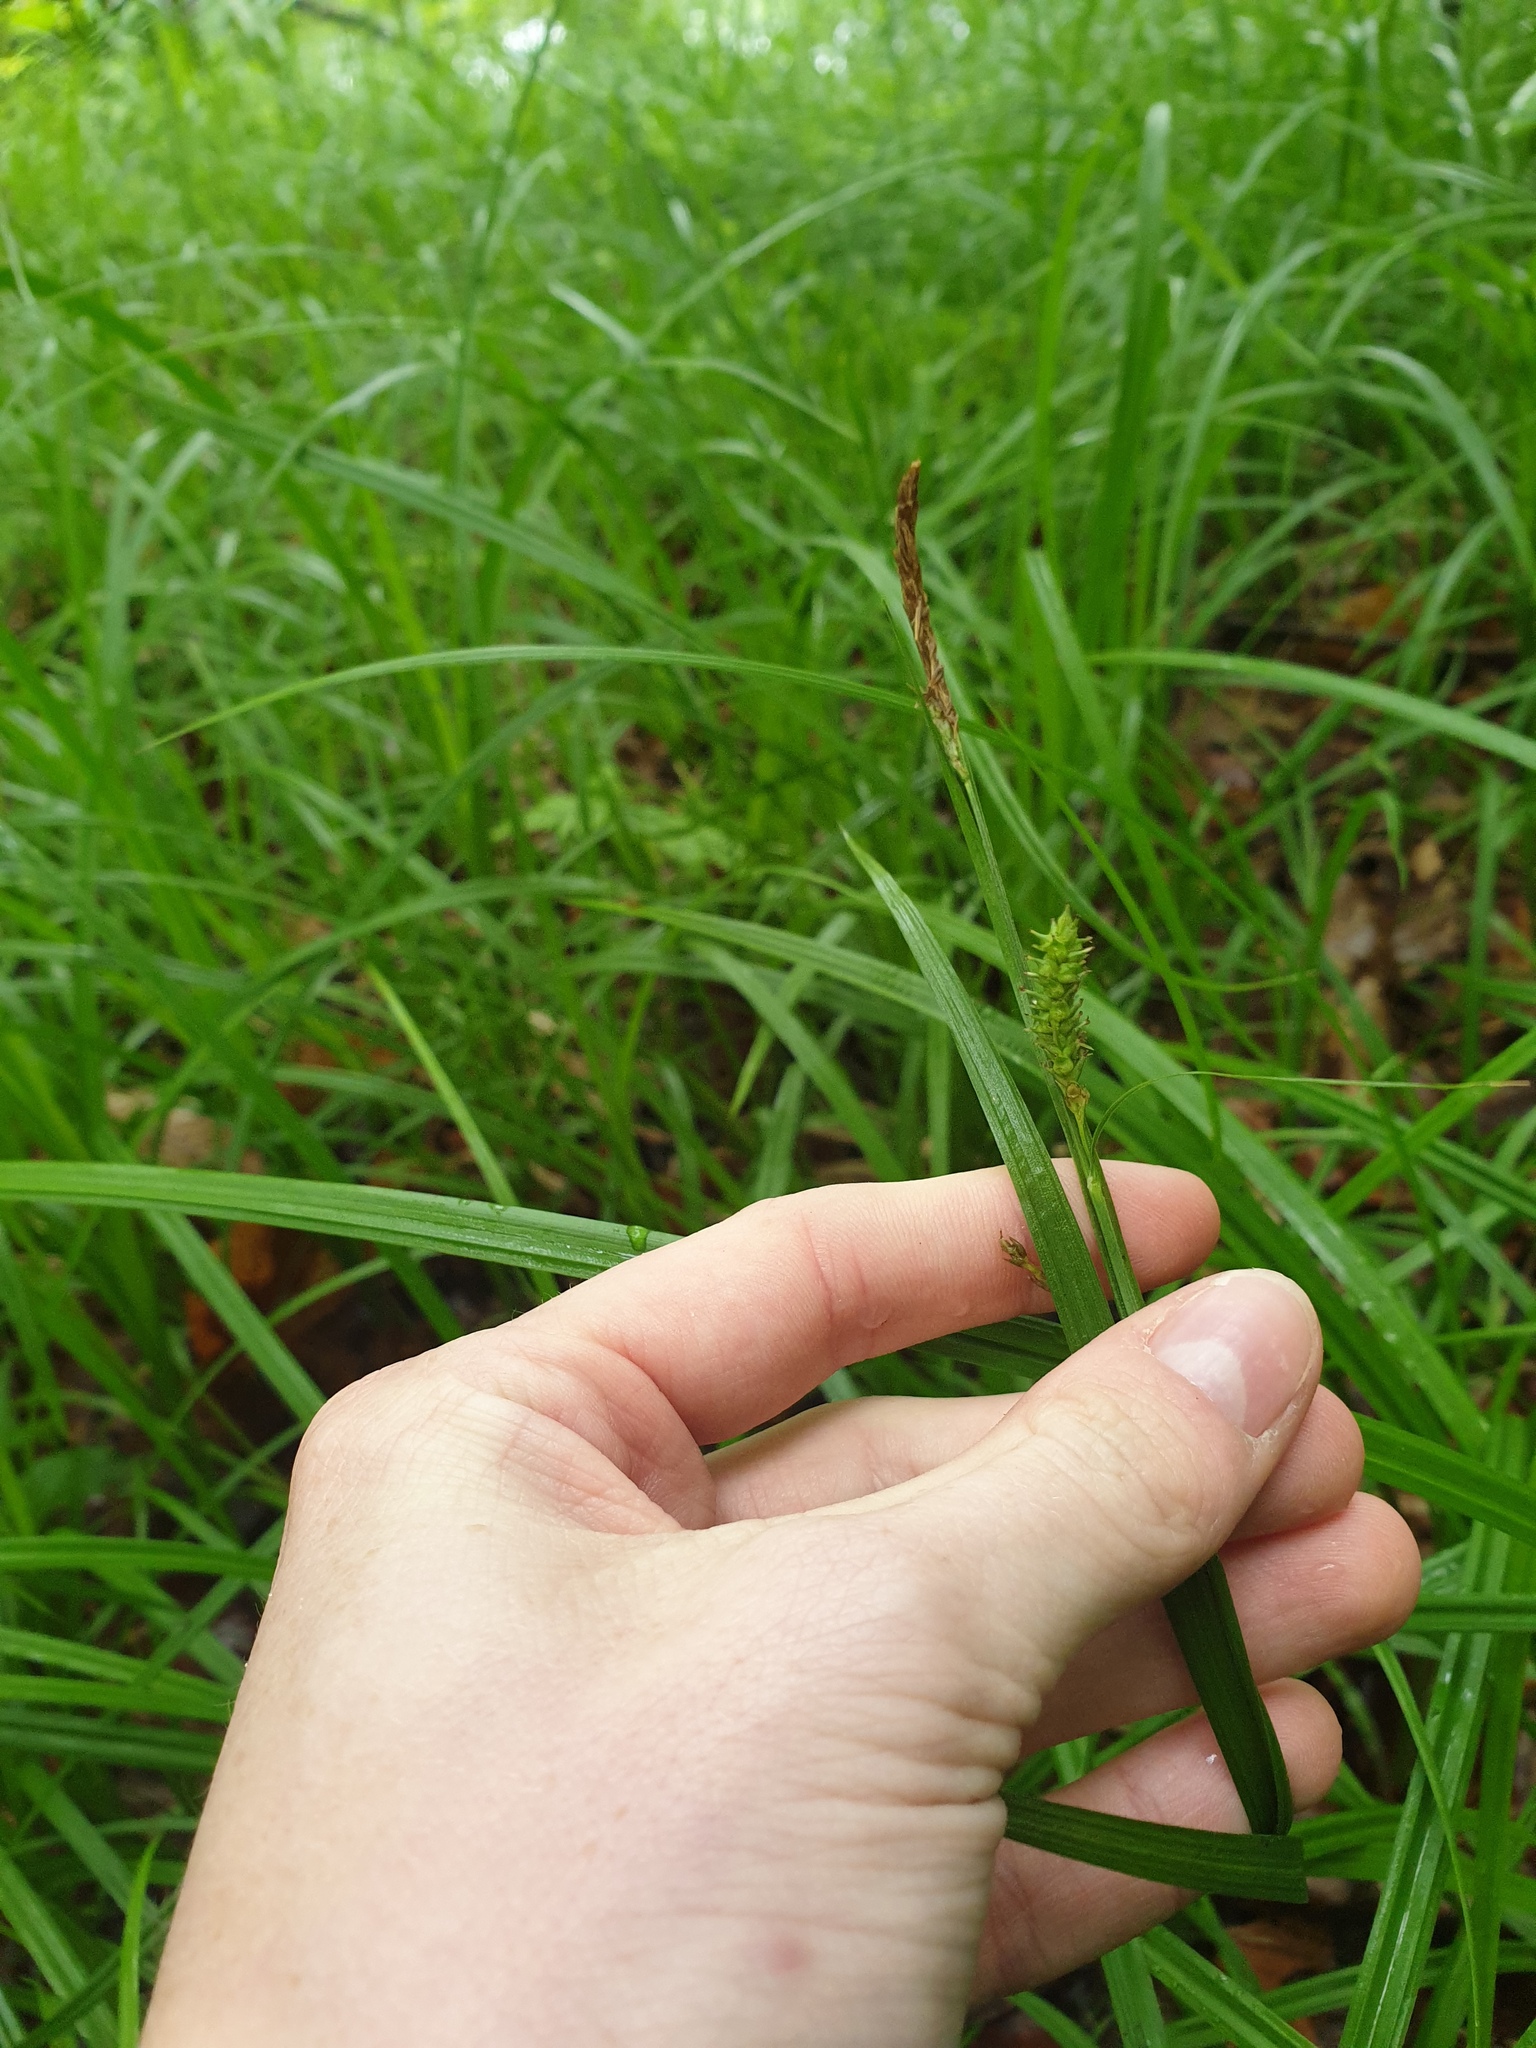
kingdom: Plantae
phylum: Tracheophyta
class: Liliopsida
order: Poales
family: Cyperaceae
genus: Carex
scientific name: Carex scabrata
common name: Eastern rough sedge
